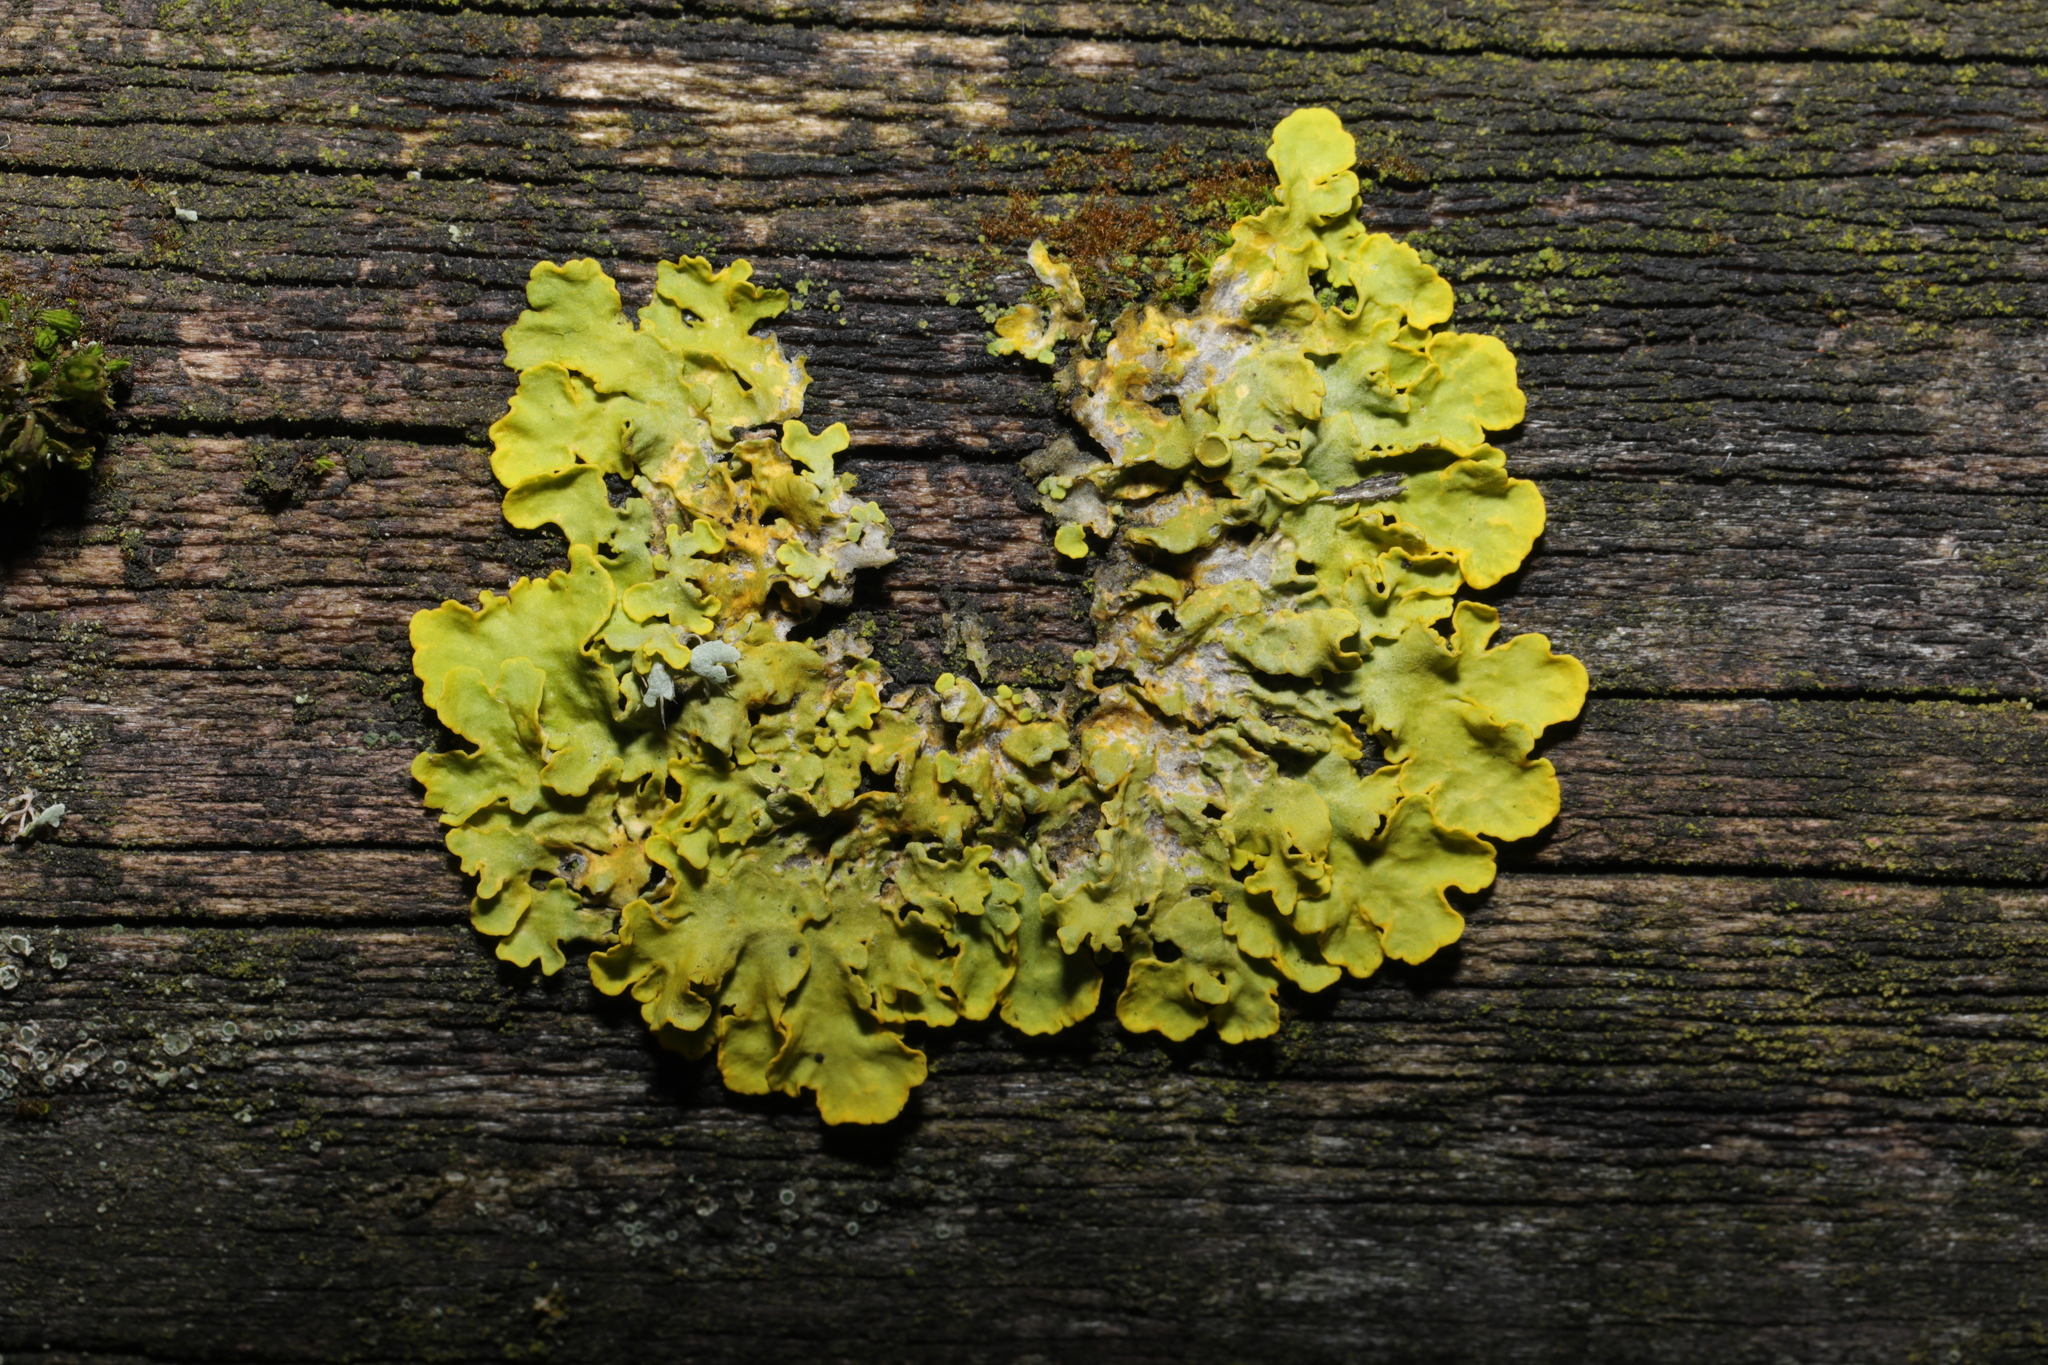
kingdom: Fungi
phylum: Ascomycota
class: Lecanoromycetes
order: Teloschistales
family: Teloschistaceae
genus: Xanthoria
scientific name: Xanthoria parietina
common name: Common orange lichen
